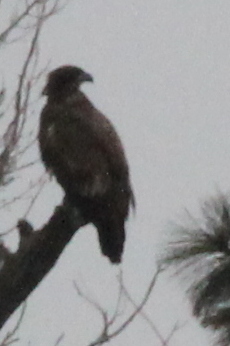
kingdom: Animalia
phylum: Chordata
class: Aves
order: Accipitriformes
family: Accipitridae
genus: Haliaeetus
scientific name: Haliaeetus leucocephalus
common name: Bald eagle
